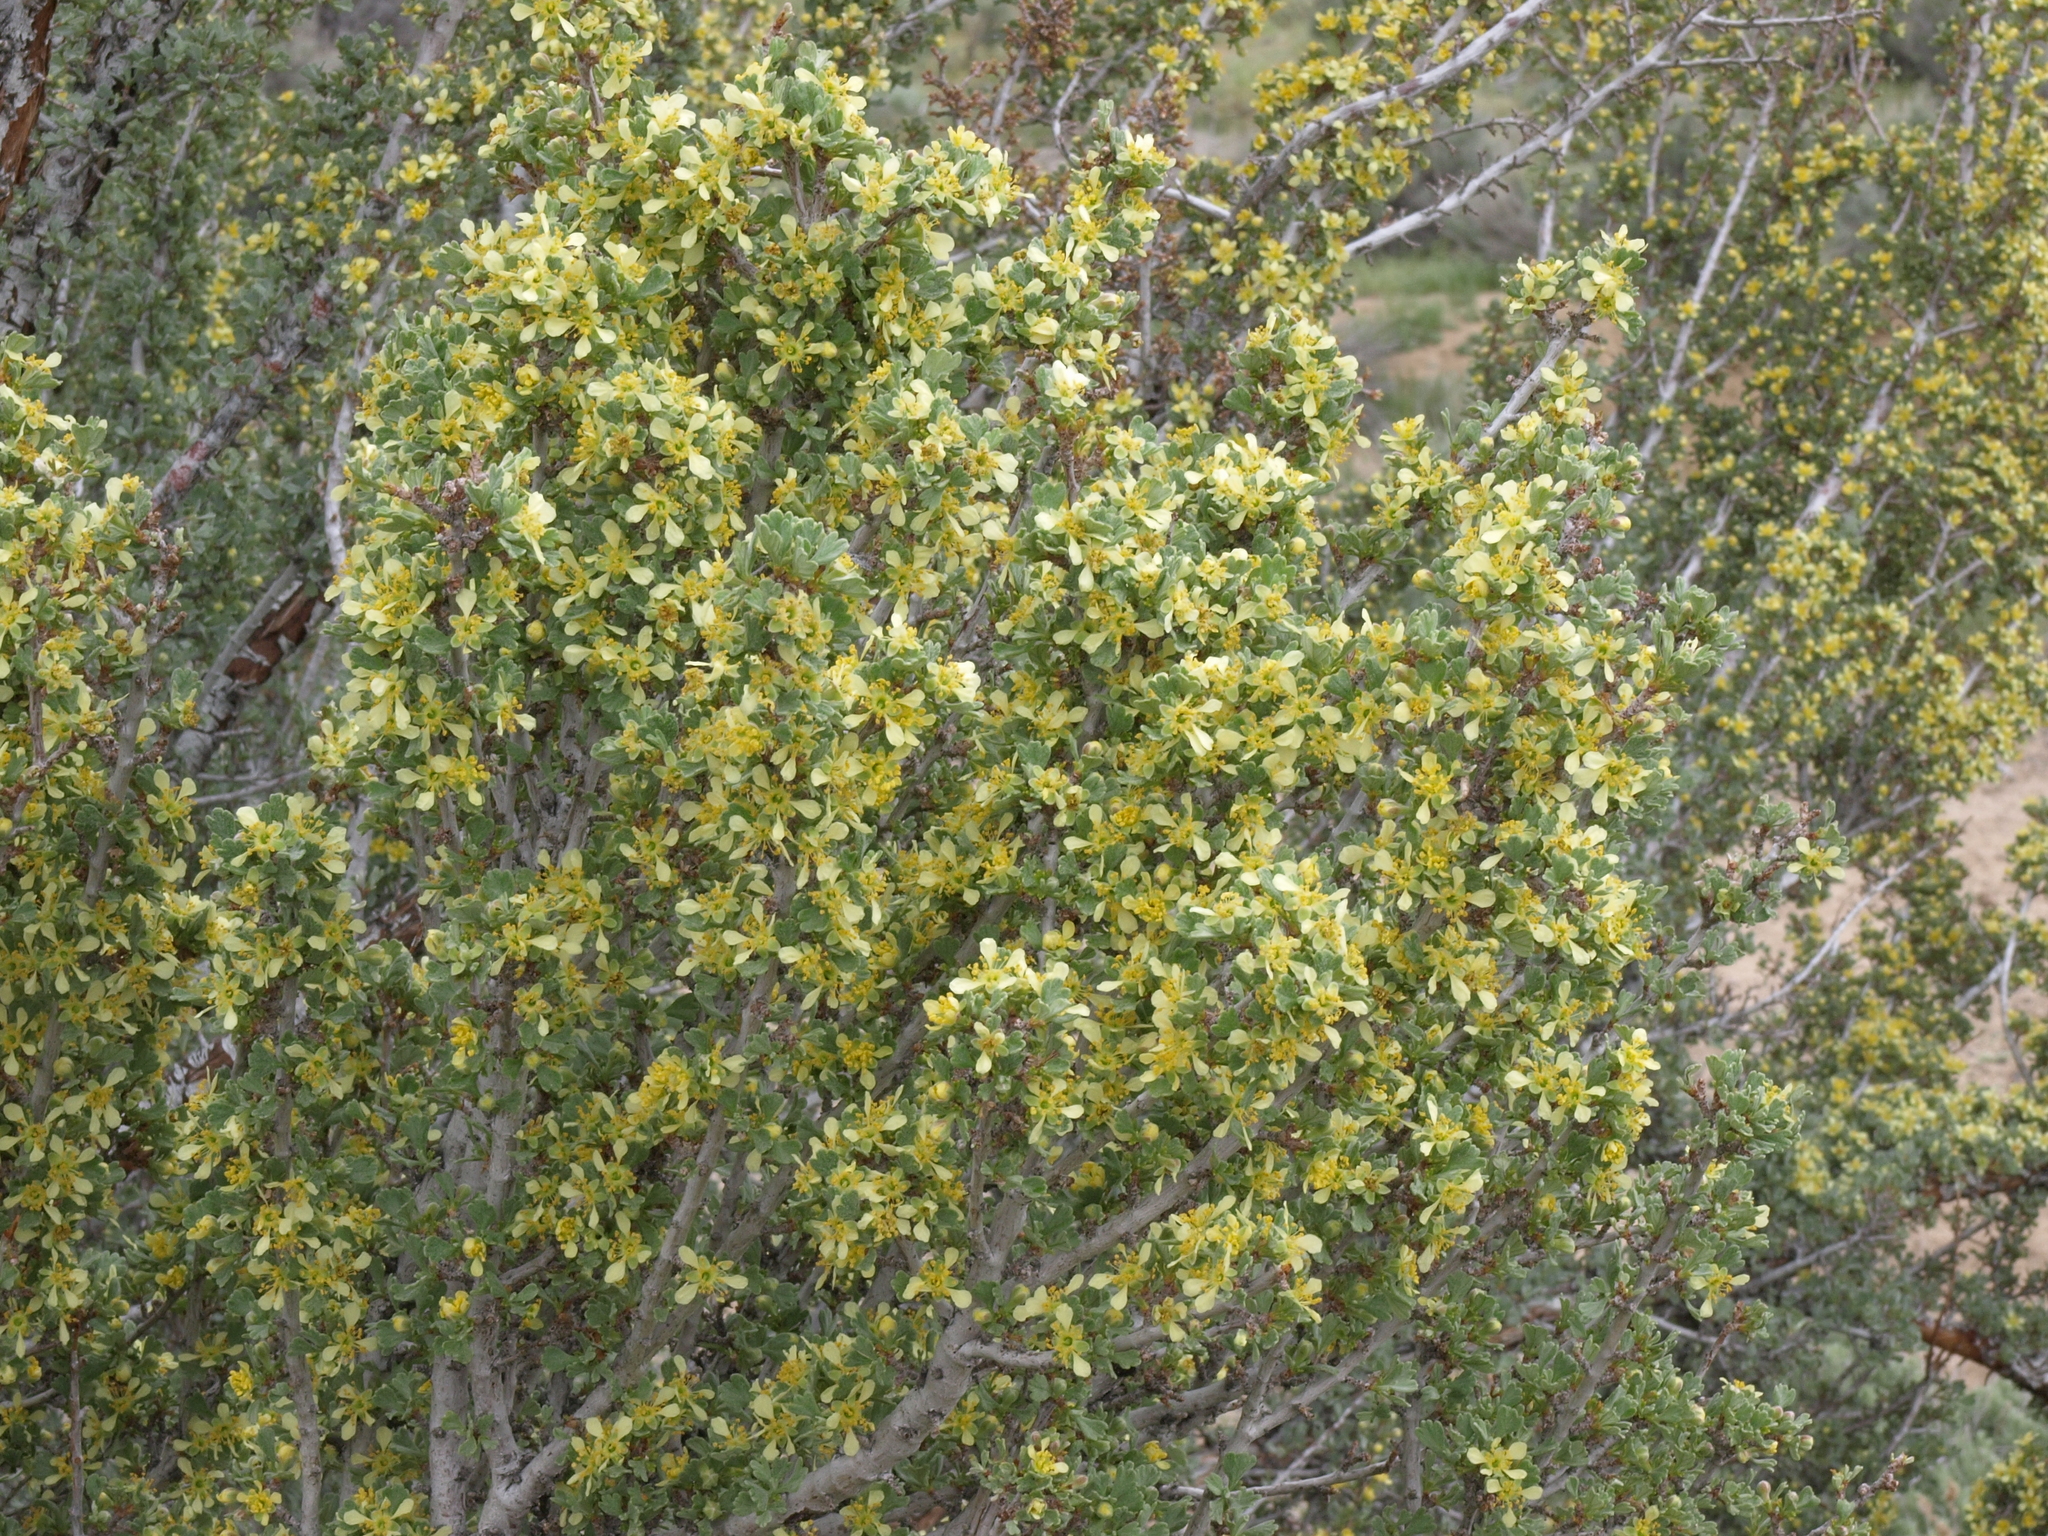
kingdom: Plantae
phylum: Tracheophyta
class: Magnoliopsida
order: Rosales
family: Rosaceae
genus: Purshia
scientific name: Purshia tridentata
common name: Antelope bitterbrush
